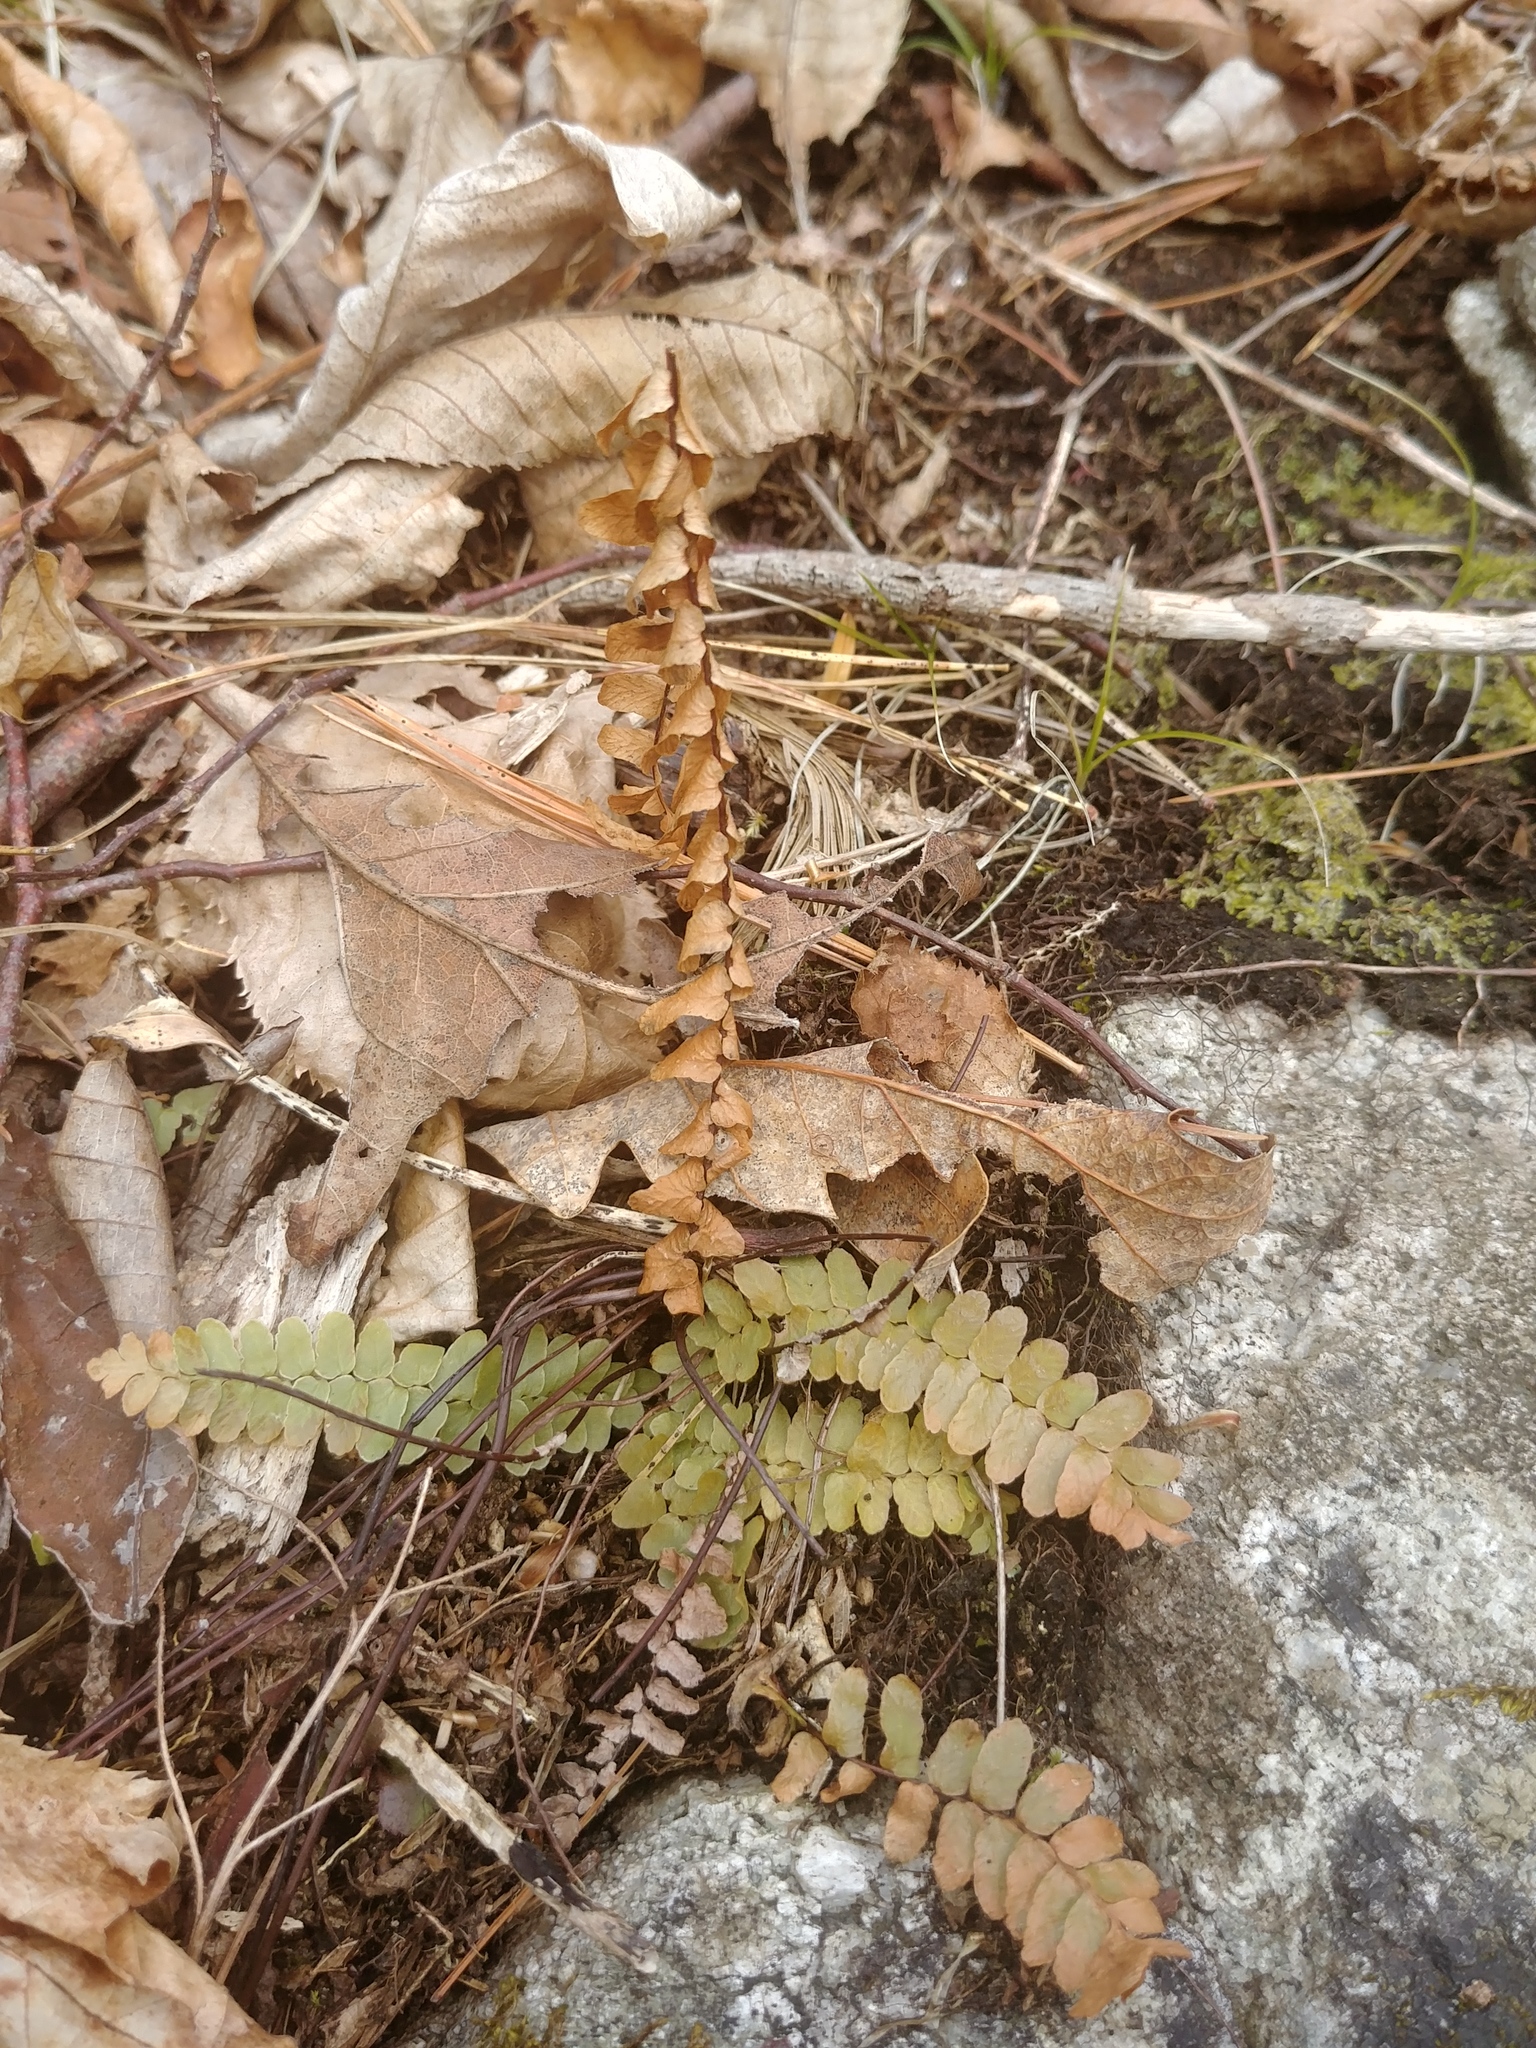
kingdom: Plantae
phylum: Tracheophyta
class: Polypodiopsida
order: Polypodiales
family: Aspleniaceae
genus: Asplenium
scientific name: Asplenium platyneuron
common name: Ebony spleenwort
